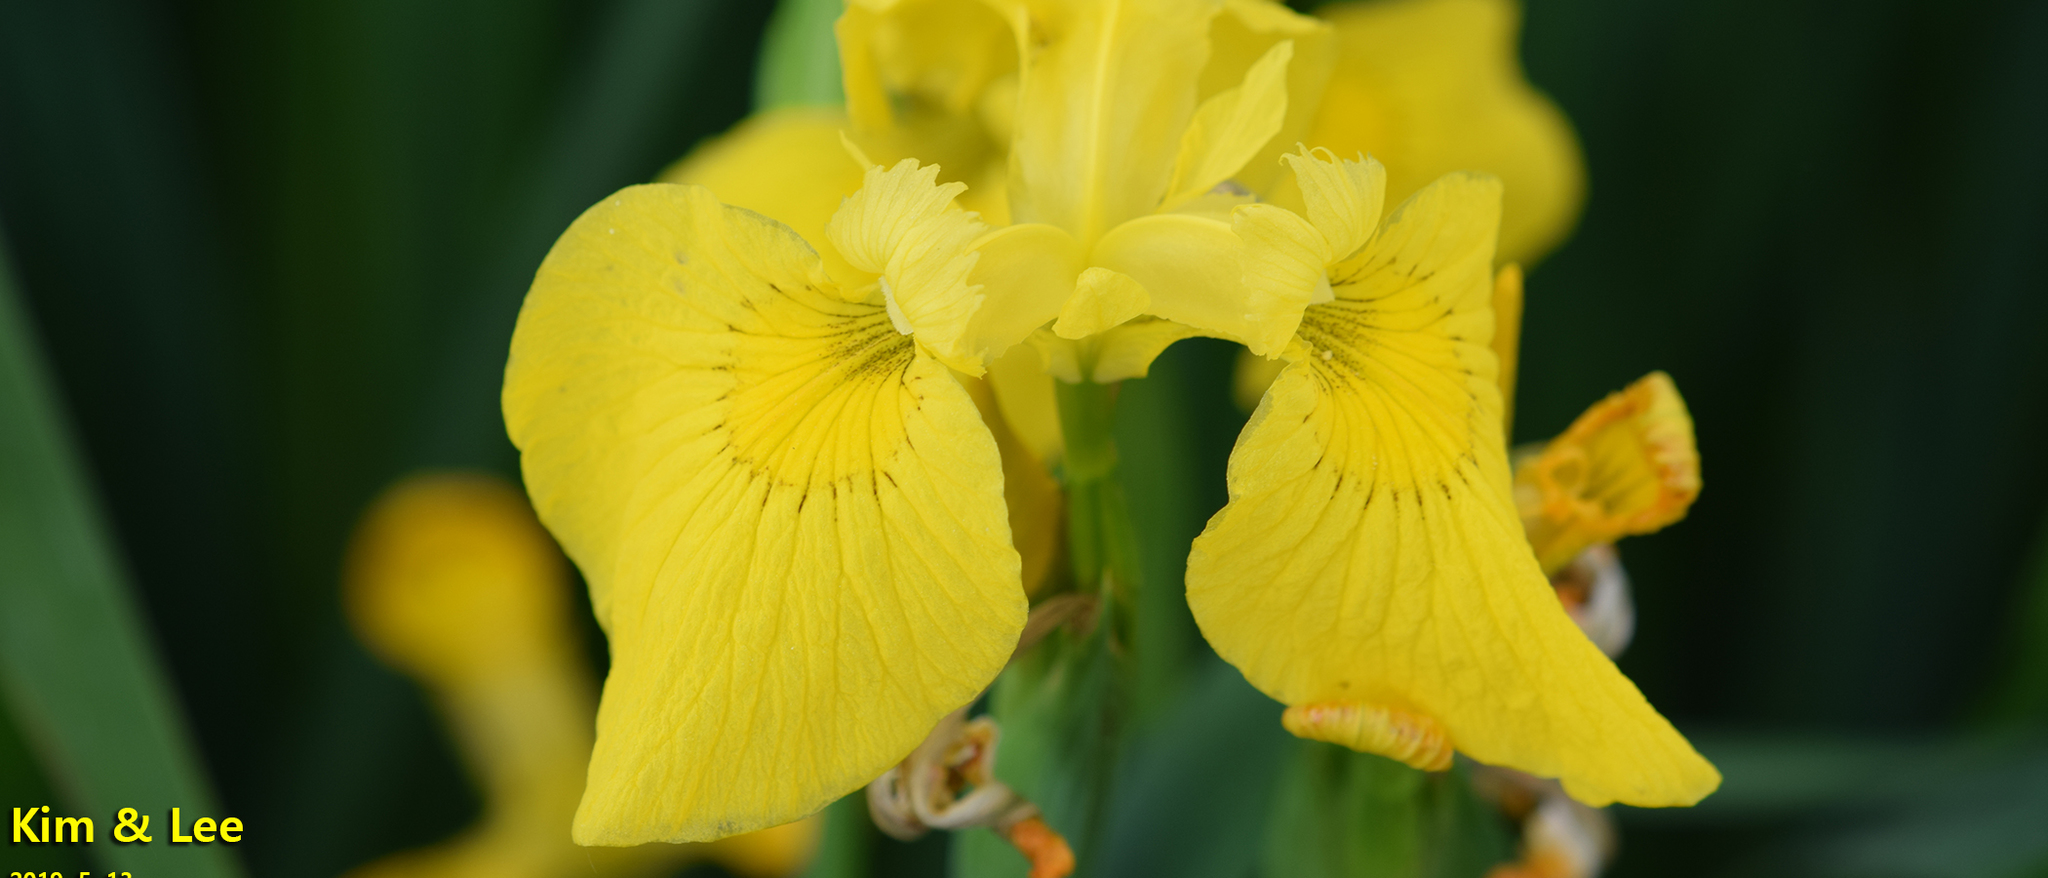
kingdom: Plantae
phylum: Tracheophyta
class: Liliopsida
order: Asparagales
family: Iridaceae
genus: Iris
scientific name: Iris pseudacorus
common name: Yellow flag
